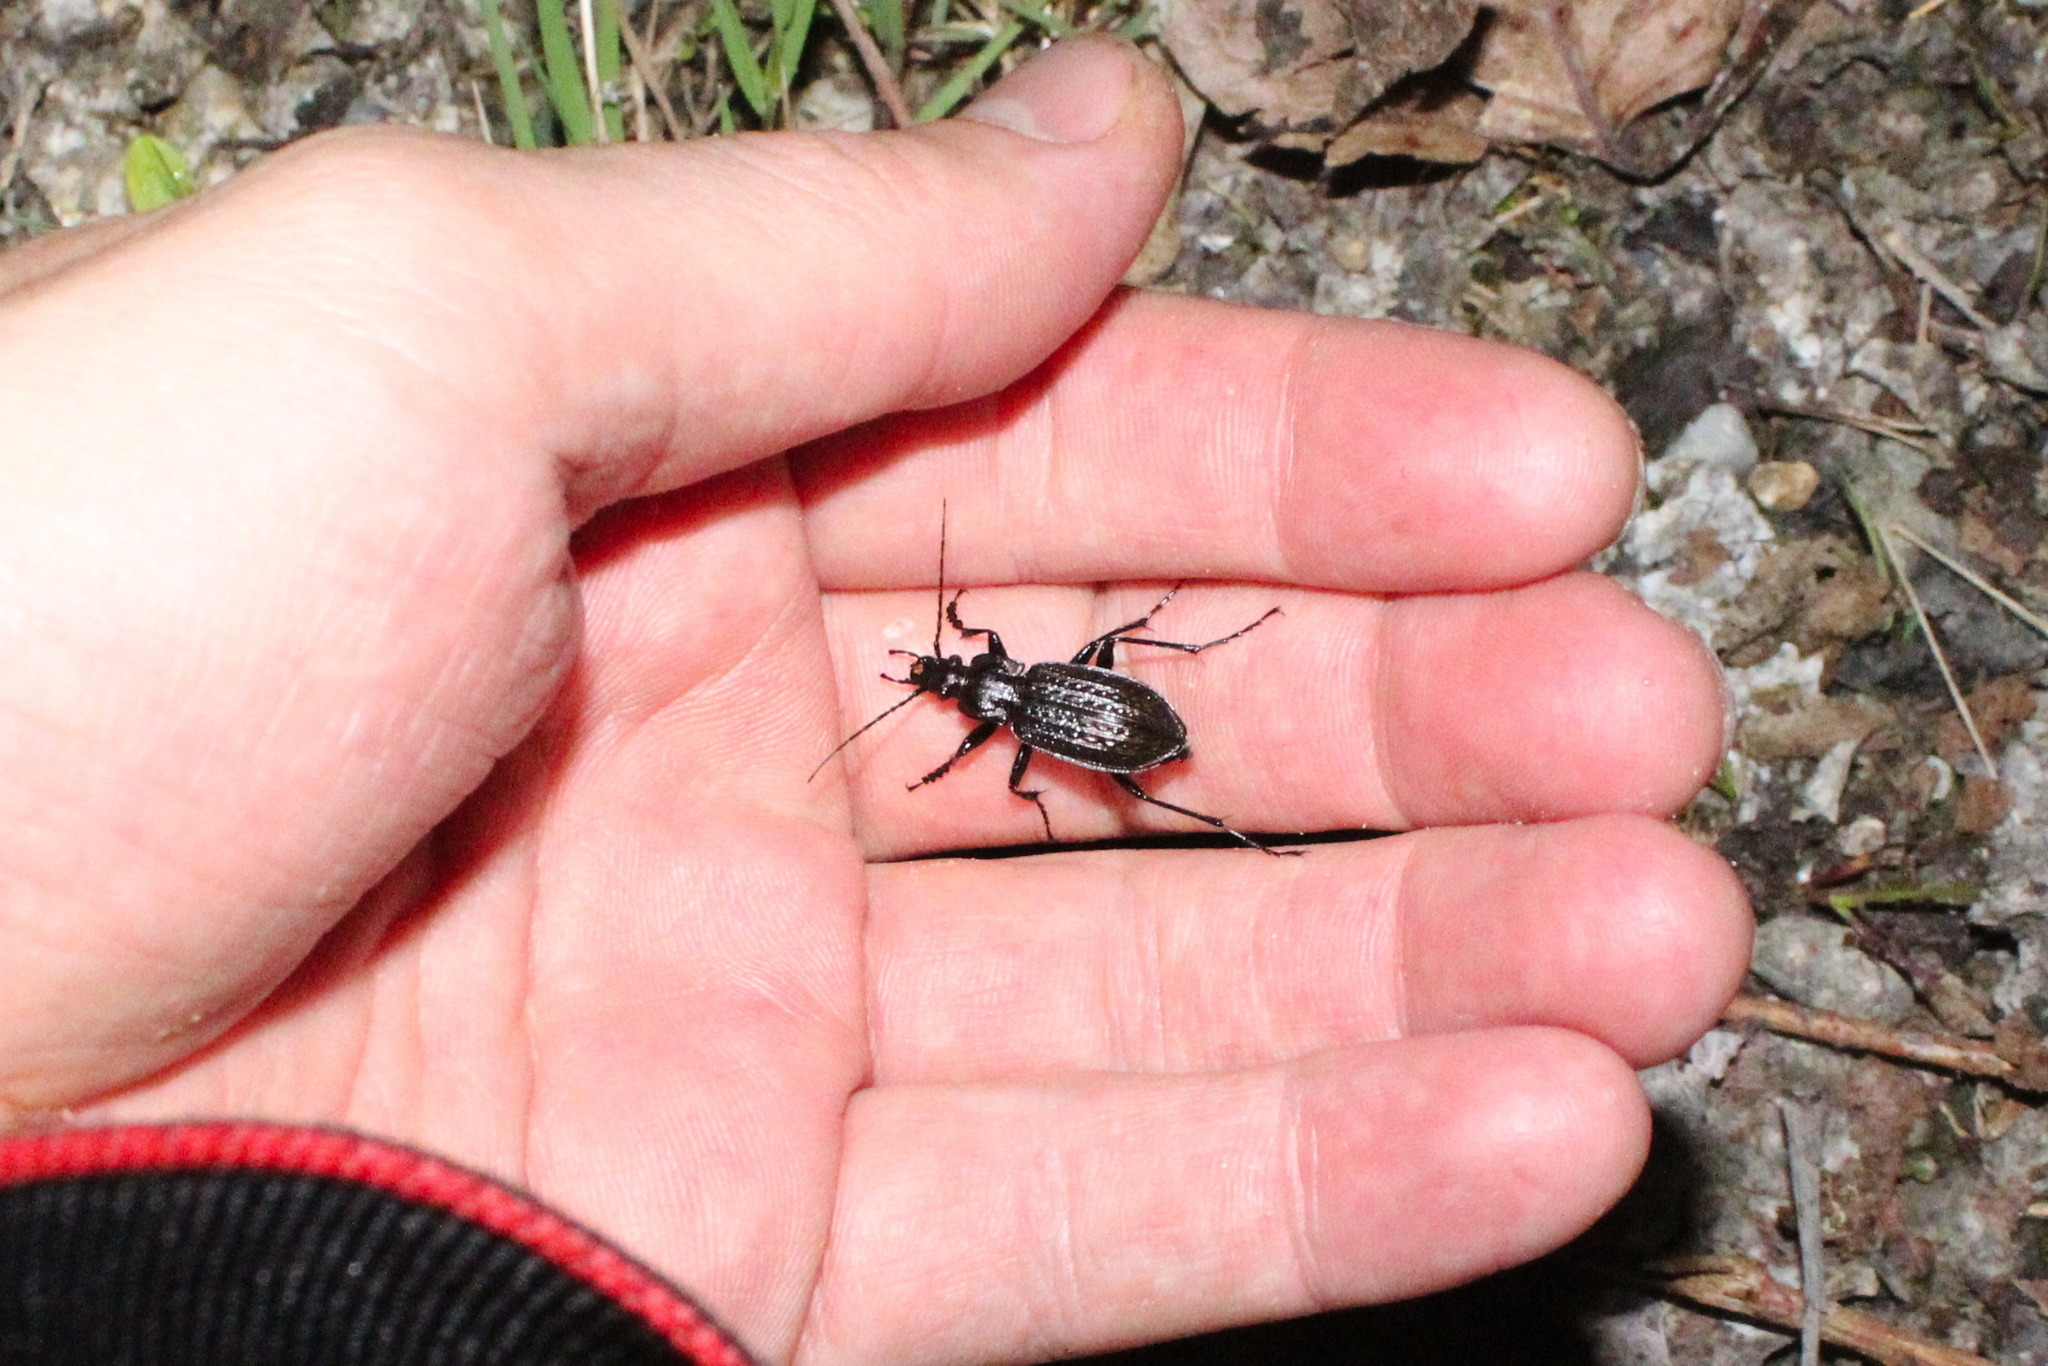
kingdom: Animalia
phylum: Arthropoda
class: Insecta
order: Coleoptera
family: Carabidae
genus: Carabus
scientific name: Carabus granulatus
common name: Granulate ground beetle
